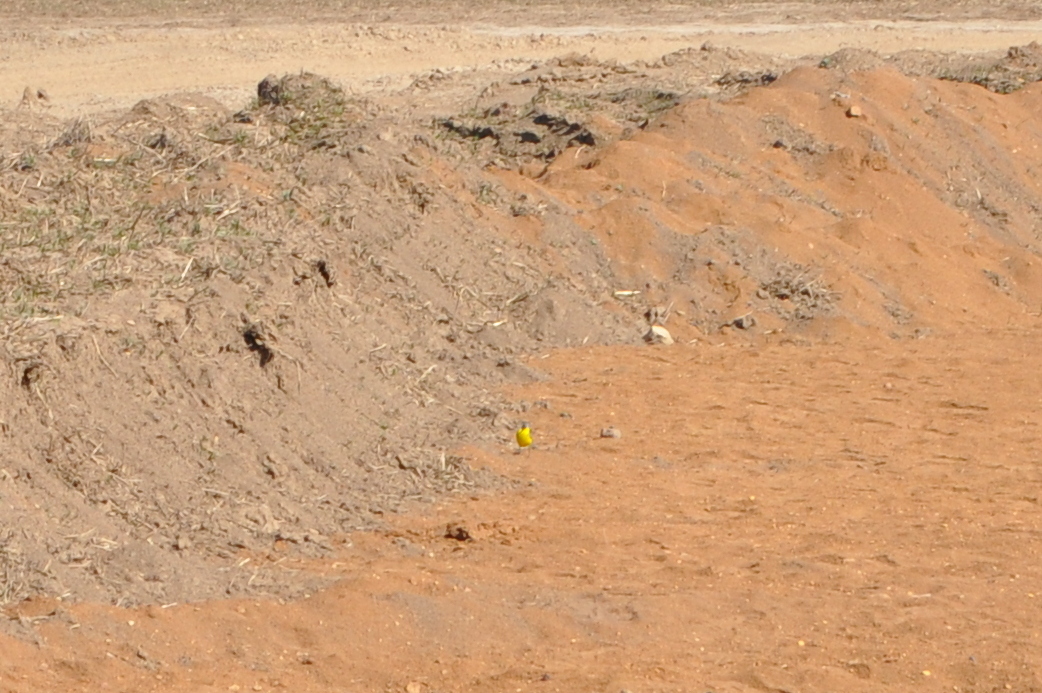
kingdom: Animalia
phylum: Chordata
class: Aves
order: Passeriformes
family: Motacillidae
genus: Motacilla
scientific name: Motacilla flava
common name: Western yellow wagtail
